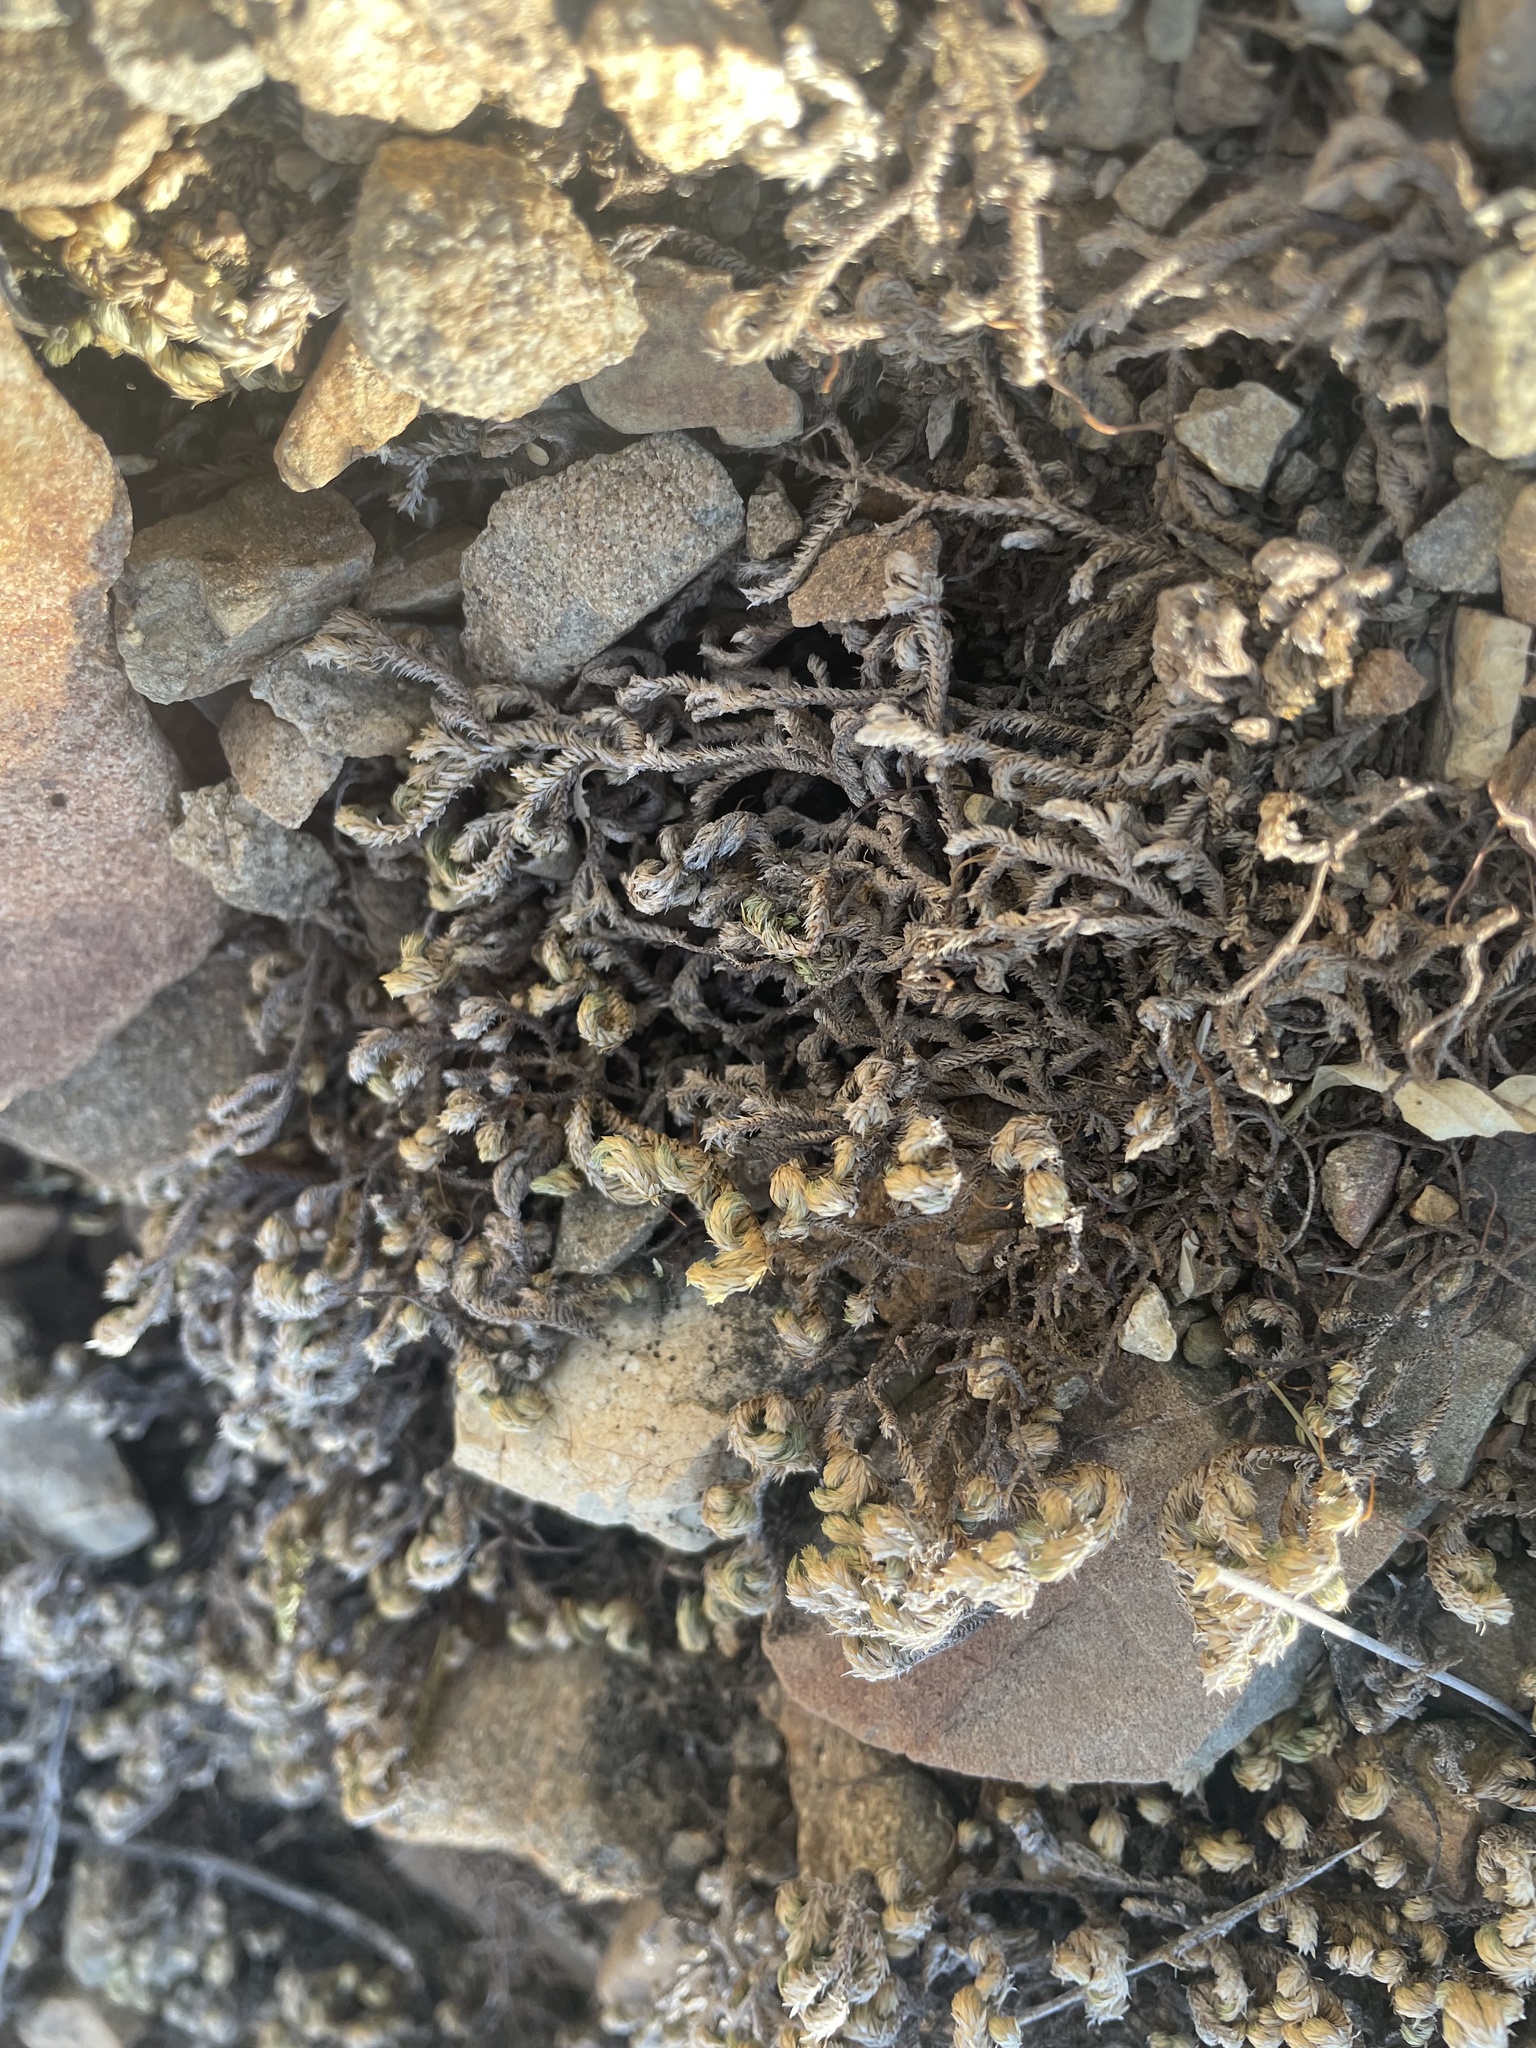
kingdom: Plantae
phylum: Tracheophyta
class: Lycopodiopsida
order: Selaginellales
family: Selaginellaceae
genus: Selaginella
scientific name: Selaginella arizonica
